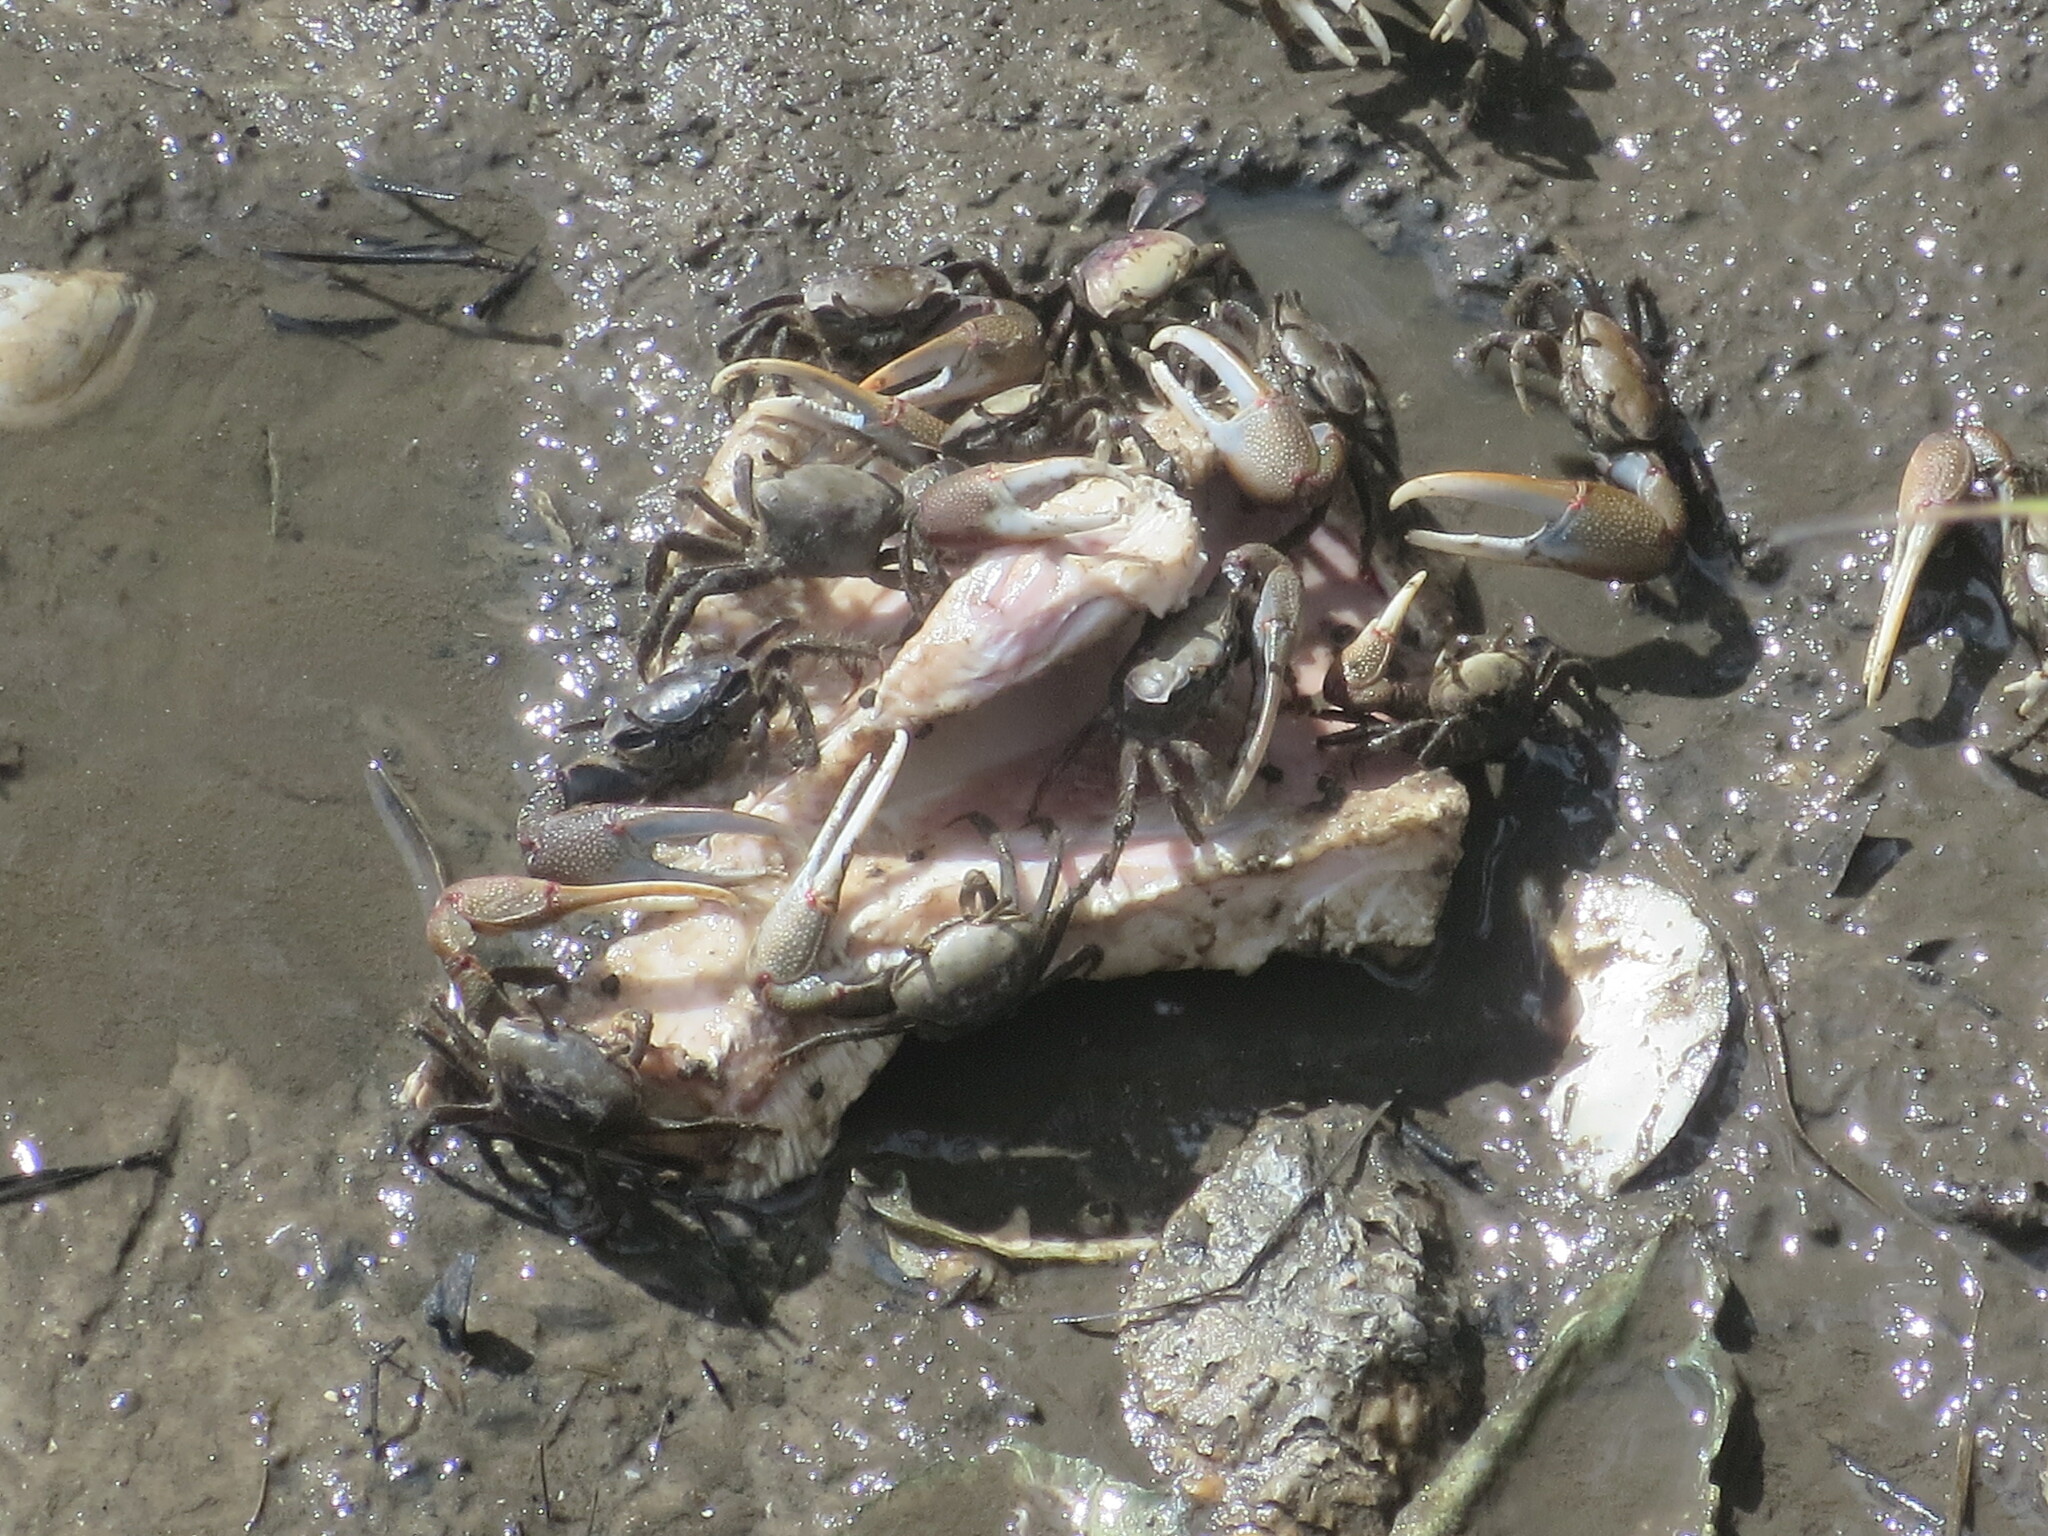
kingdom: Animalia
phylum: Arthropoda
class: Malacostraca
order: Decapoda
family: Ocypodidae
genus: Minuca
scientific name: Minuca minax
